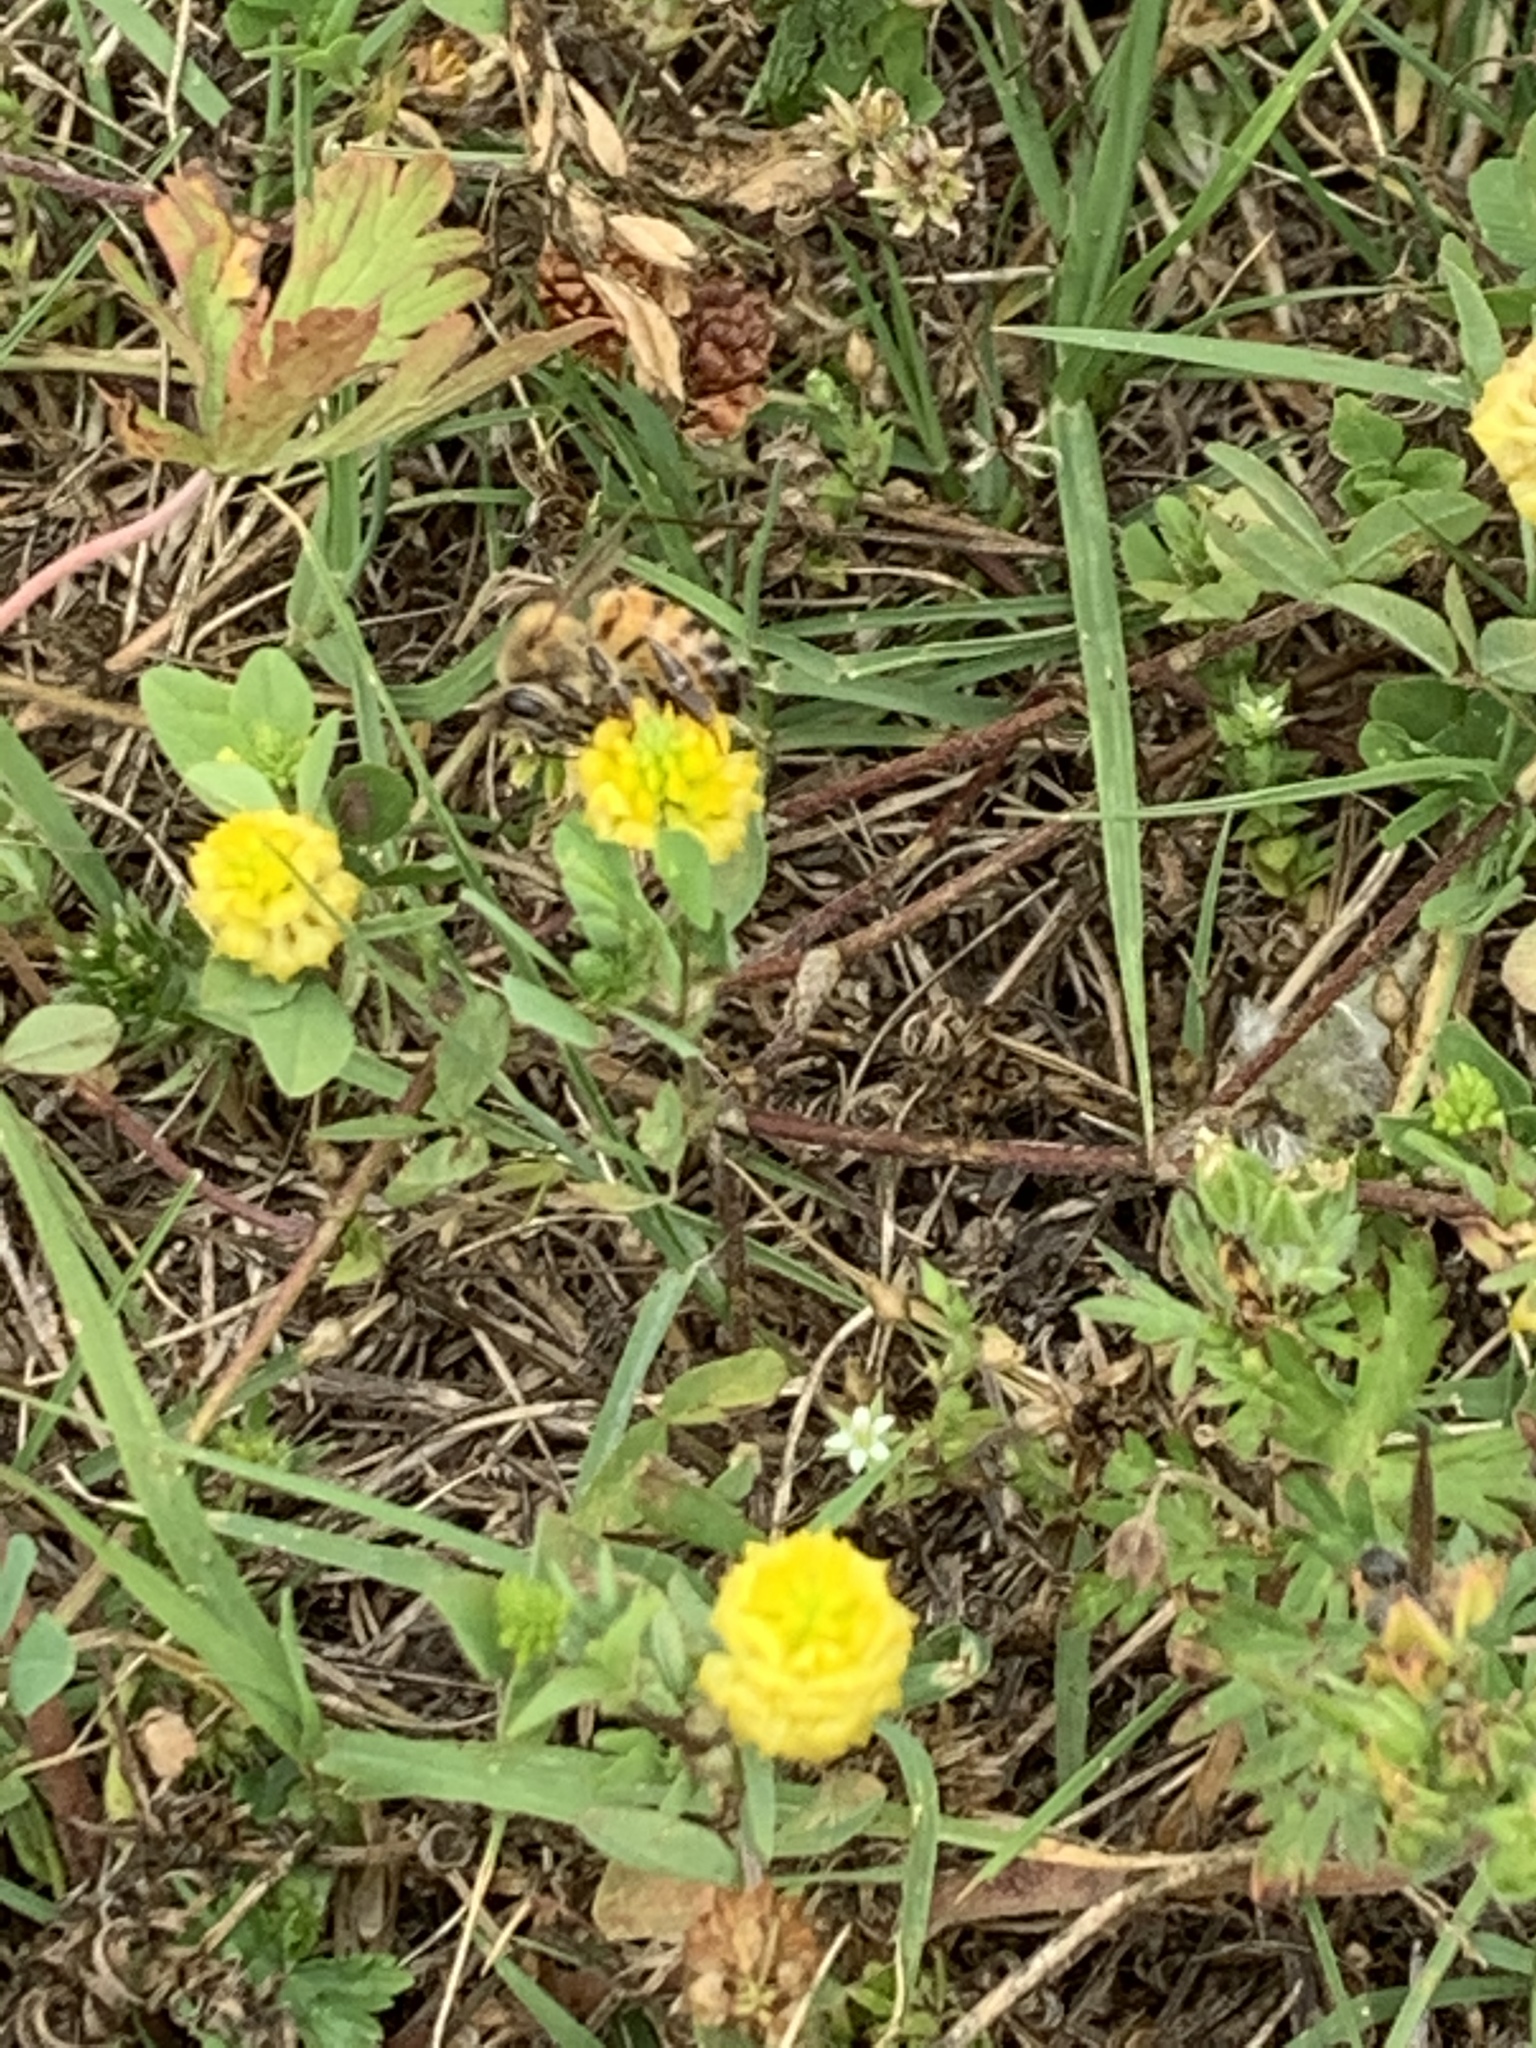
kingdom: Plantae
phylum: Tracheophyta
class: Magnoliopsida
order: Fabales
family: Fabaceae
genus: Trifolium
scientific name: Trifolium campestre
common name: Field clover
